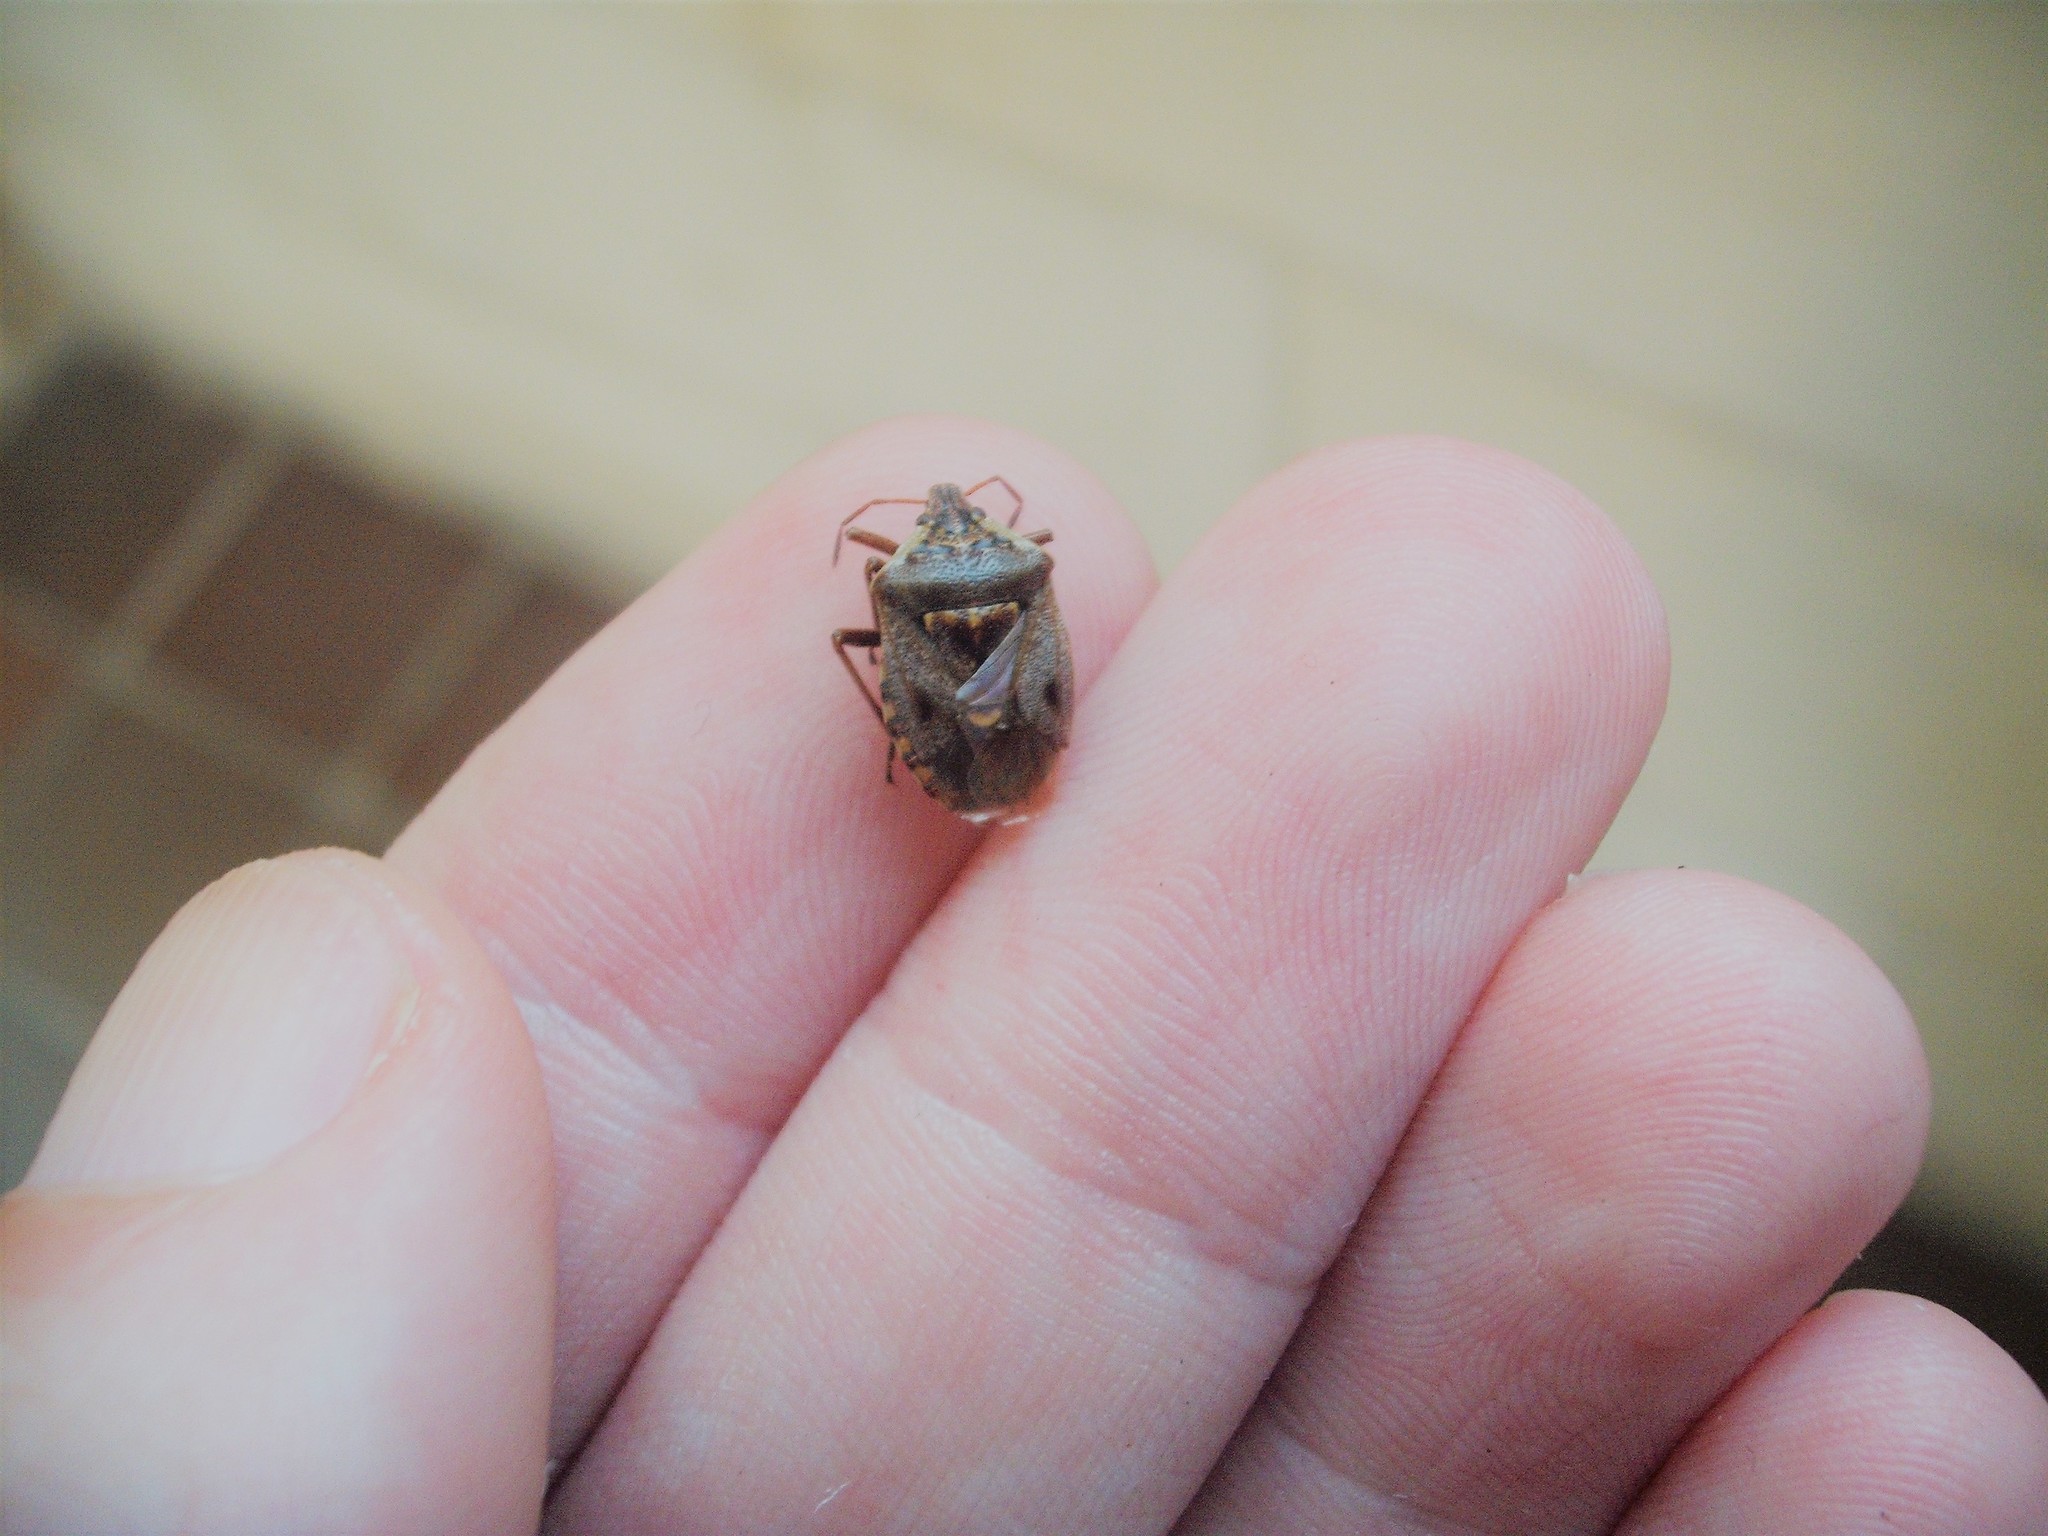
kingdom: Animalia
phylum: Arthropoda
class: Insecta
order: Hemiptera
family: Pentatomidae
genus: Cermatulus
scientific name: Cermatulus nasalis
